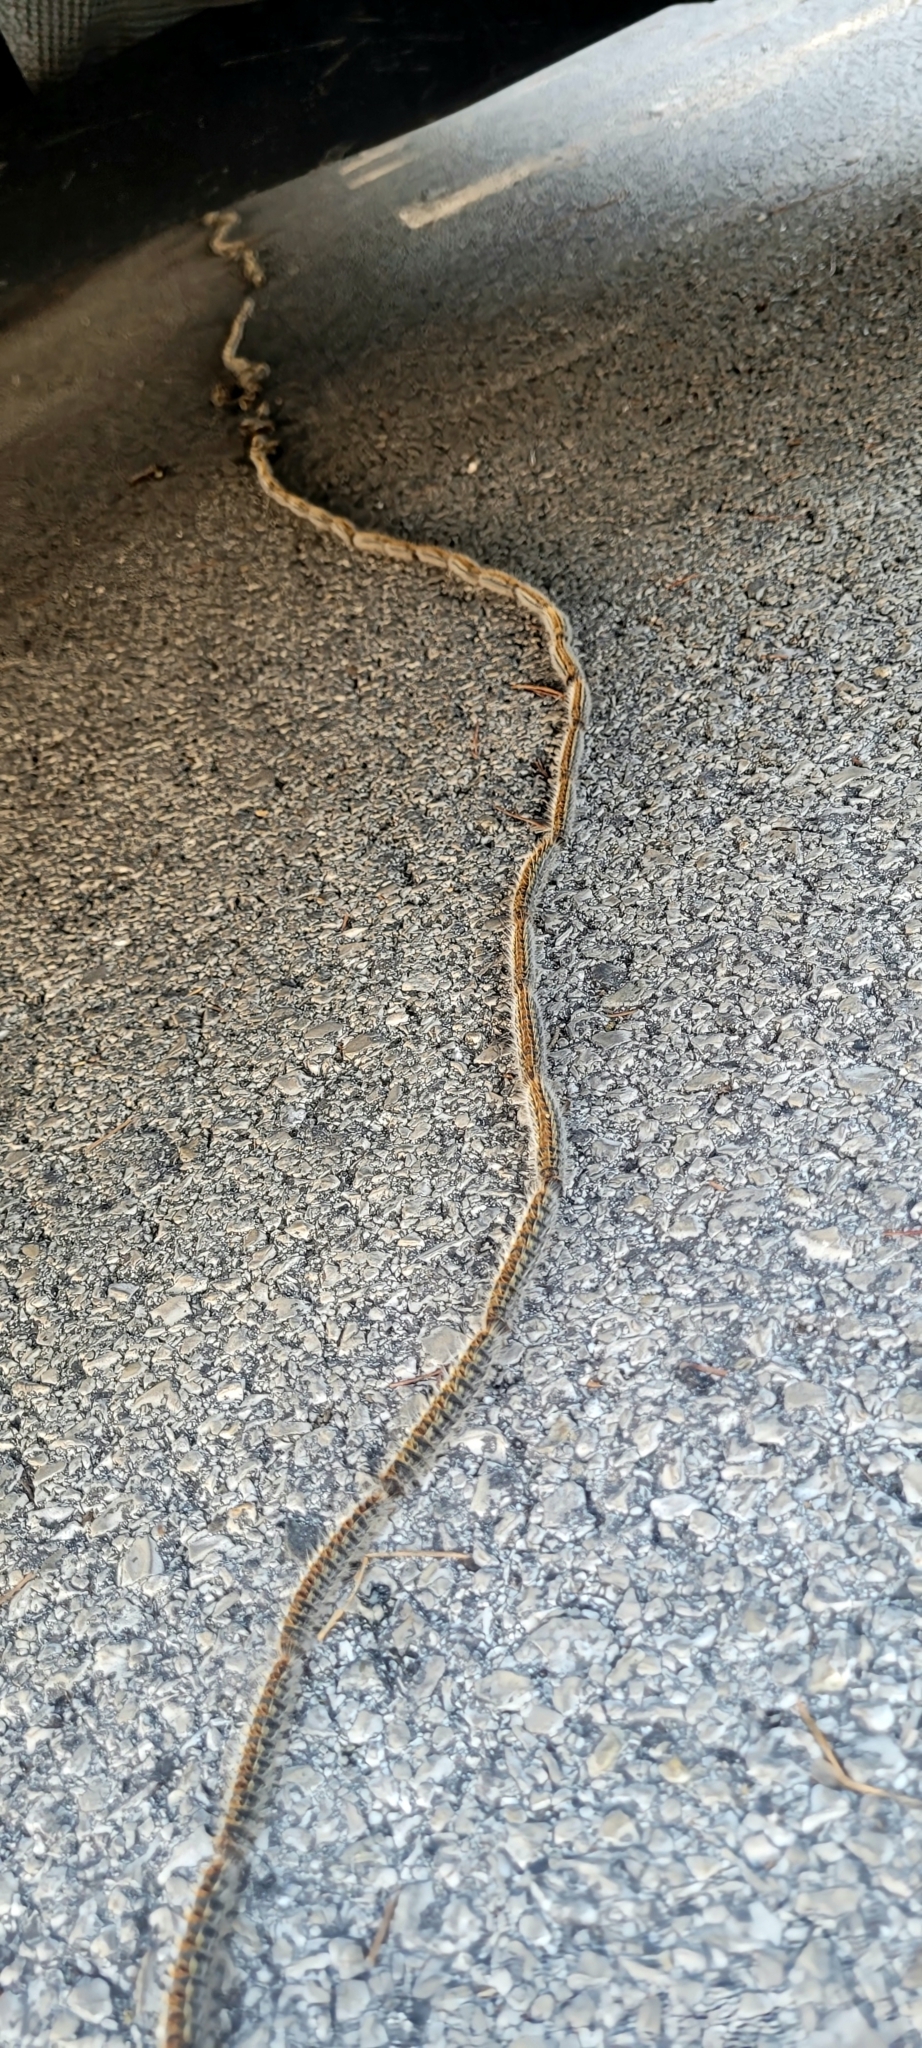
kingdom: Animalia
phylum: Arthropoda
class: Insecta
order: Lepidoptera
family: Notodontidae
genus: Thaumetopoea
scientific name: Thaumetopoea pityocampa
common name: Pine processionary
